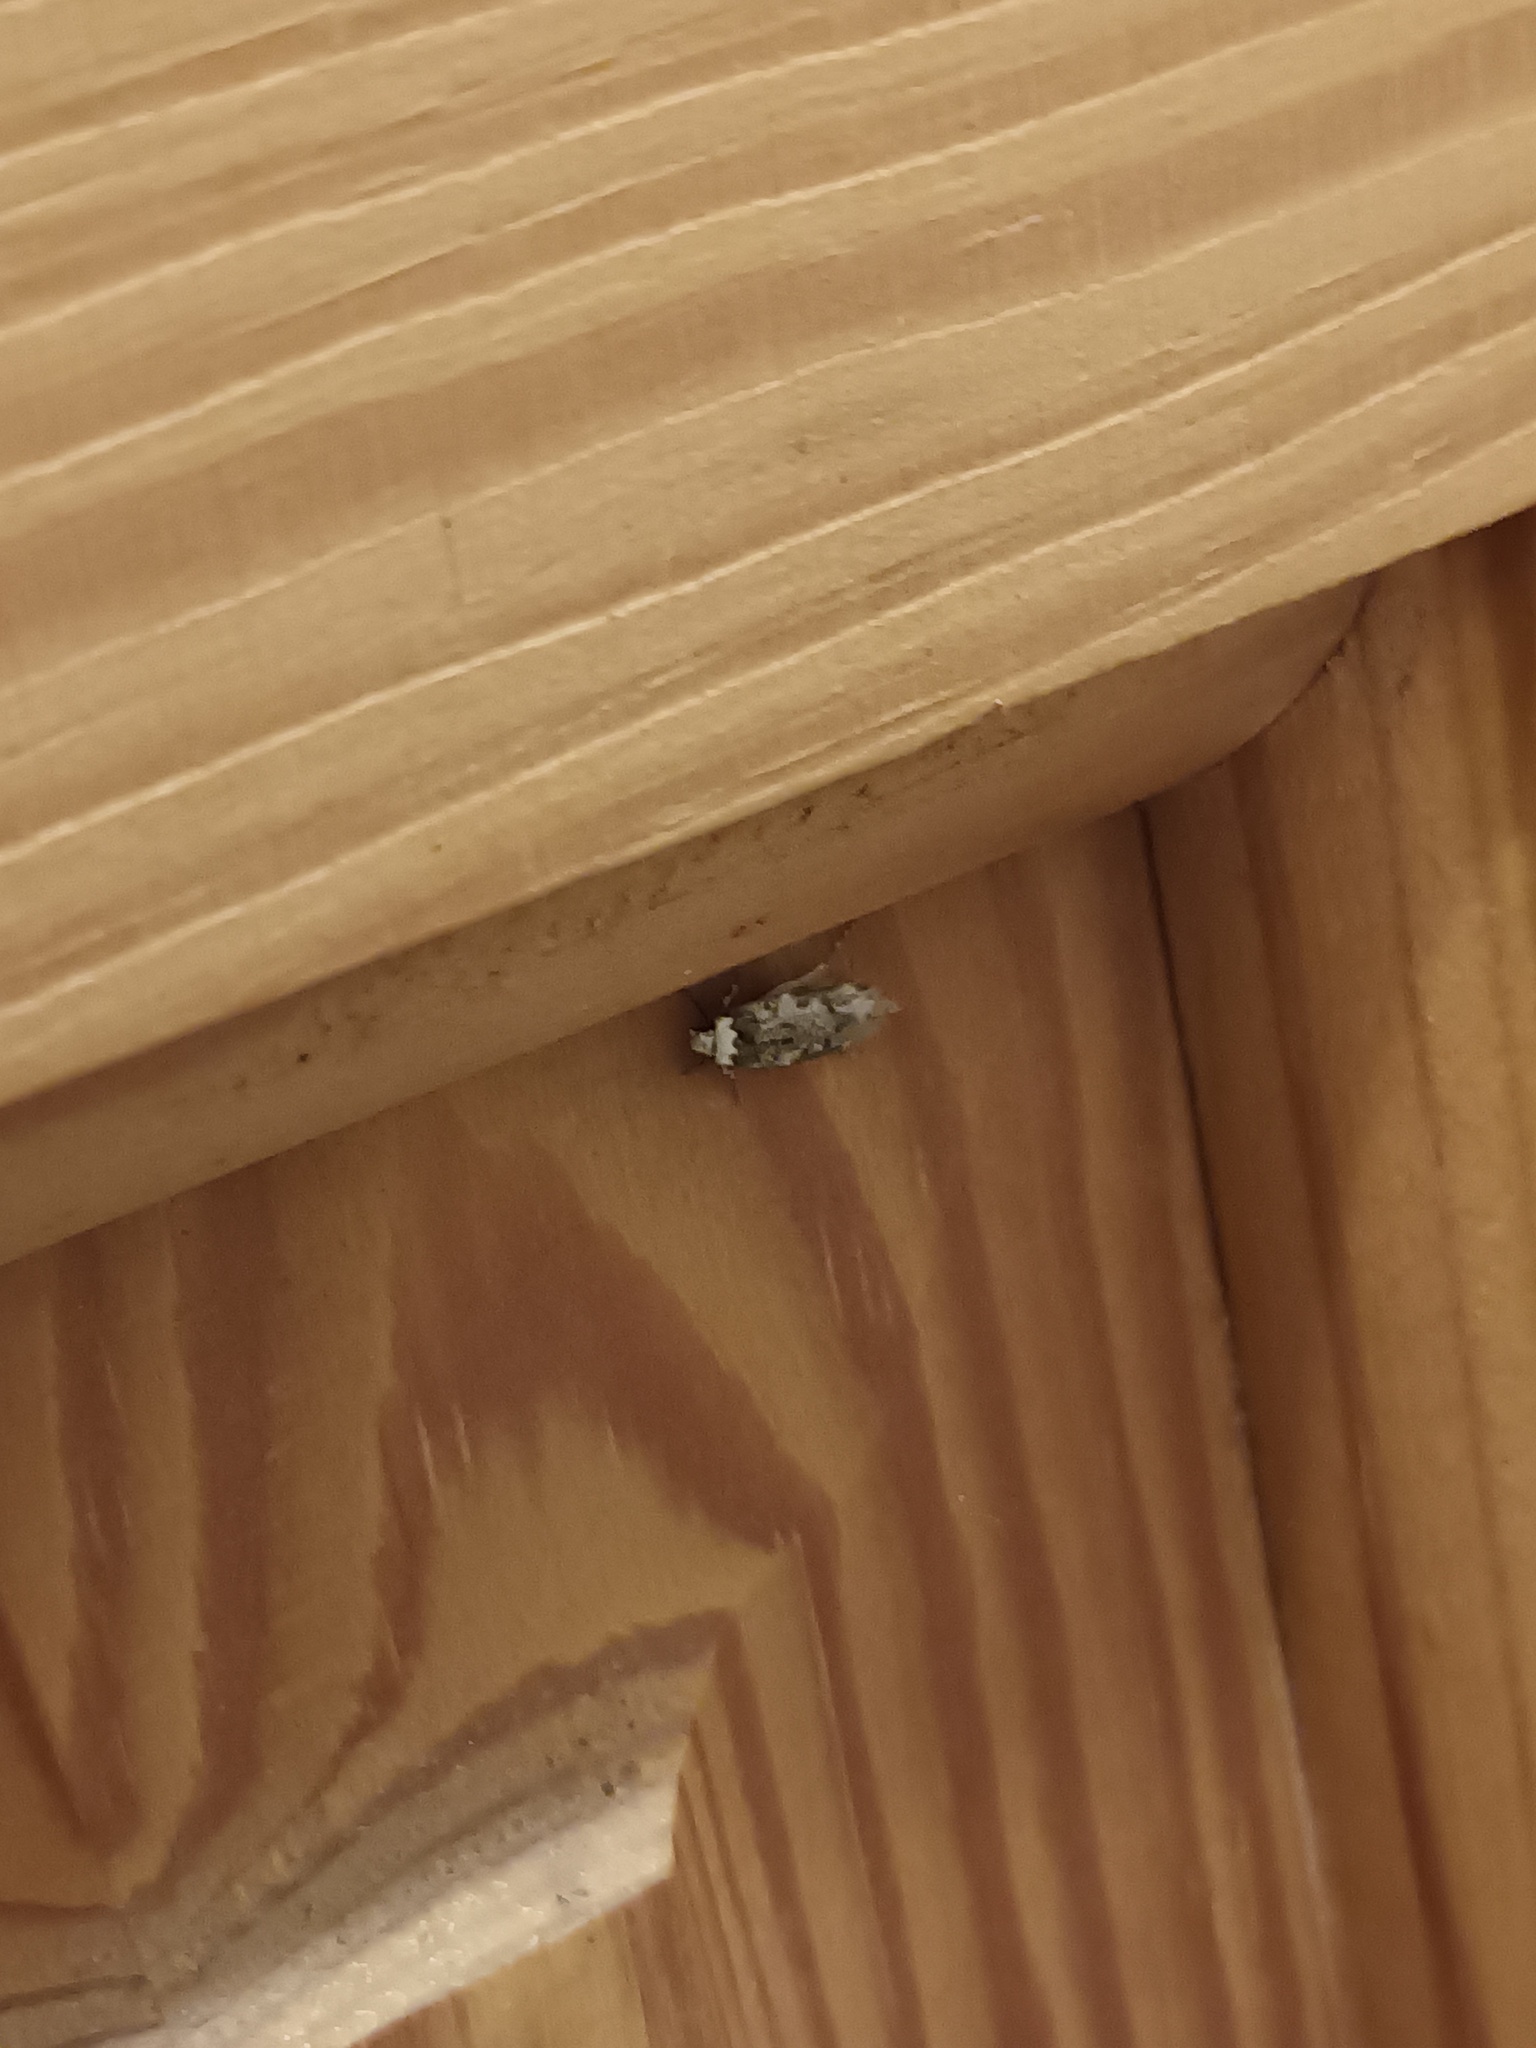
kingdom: Animalia
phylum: Arthropoda
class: Insecta
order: Lepidoptera
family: Oecophoridae
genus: Endrosis
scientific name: Endrosis sarcitrella
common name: White-shouldered house moth
